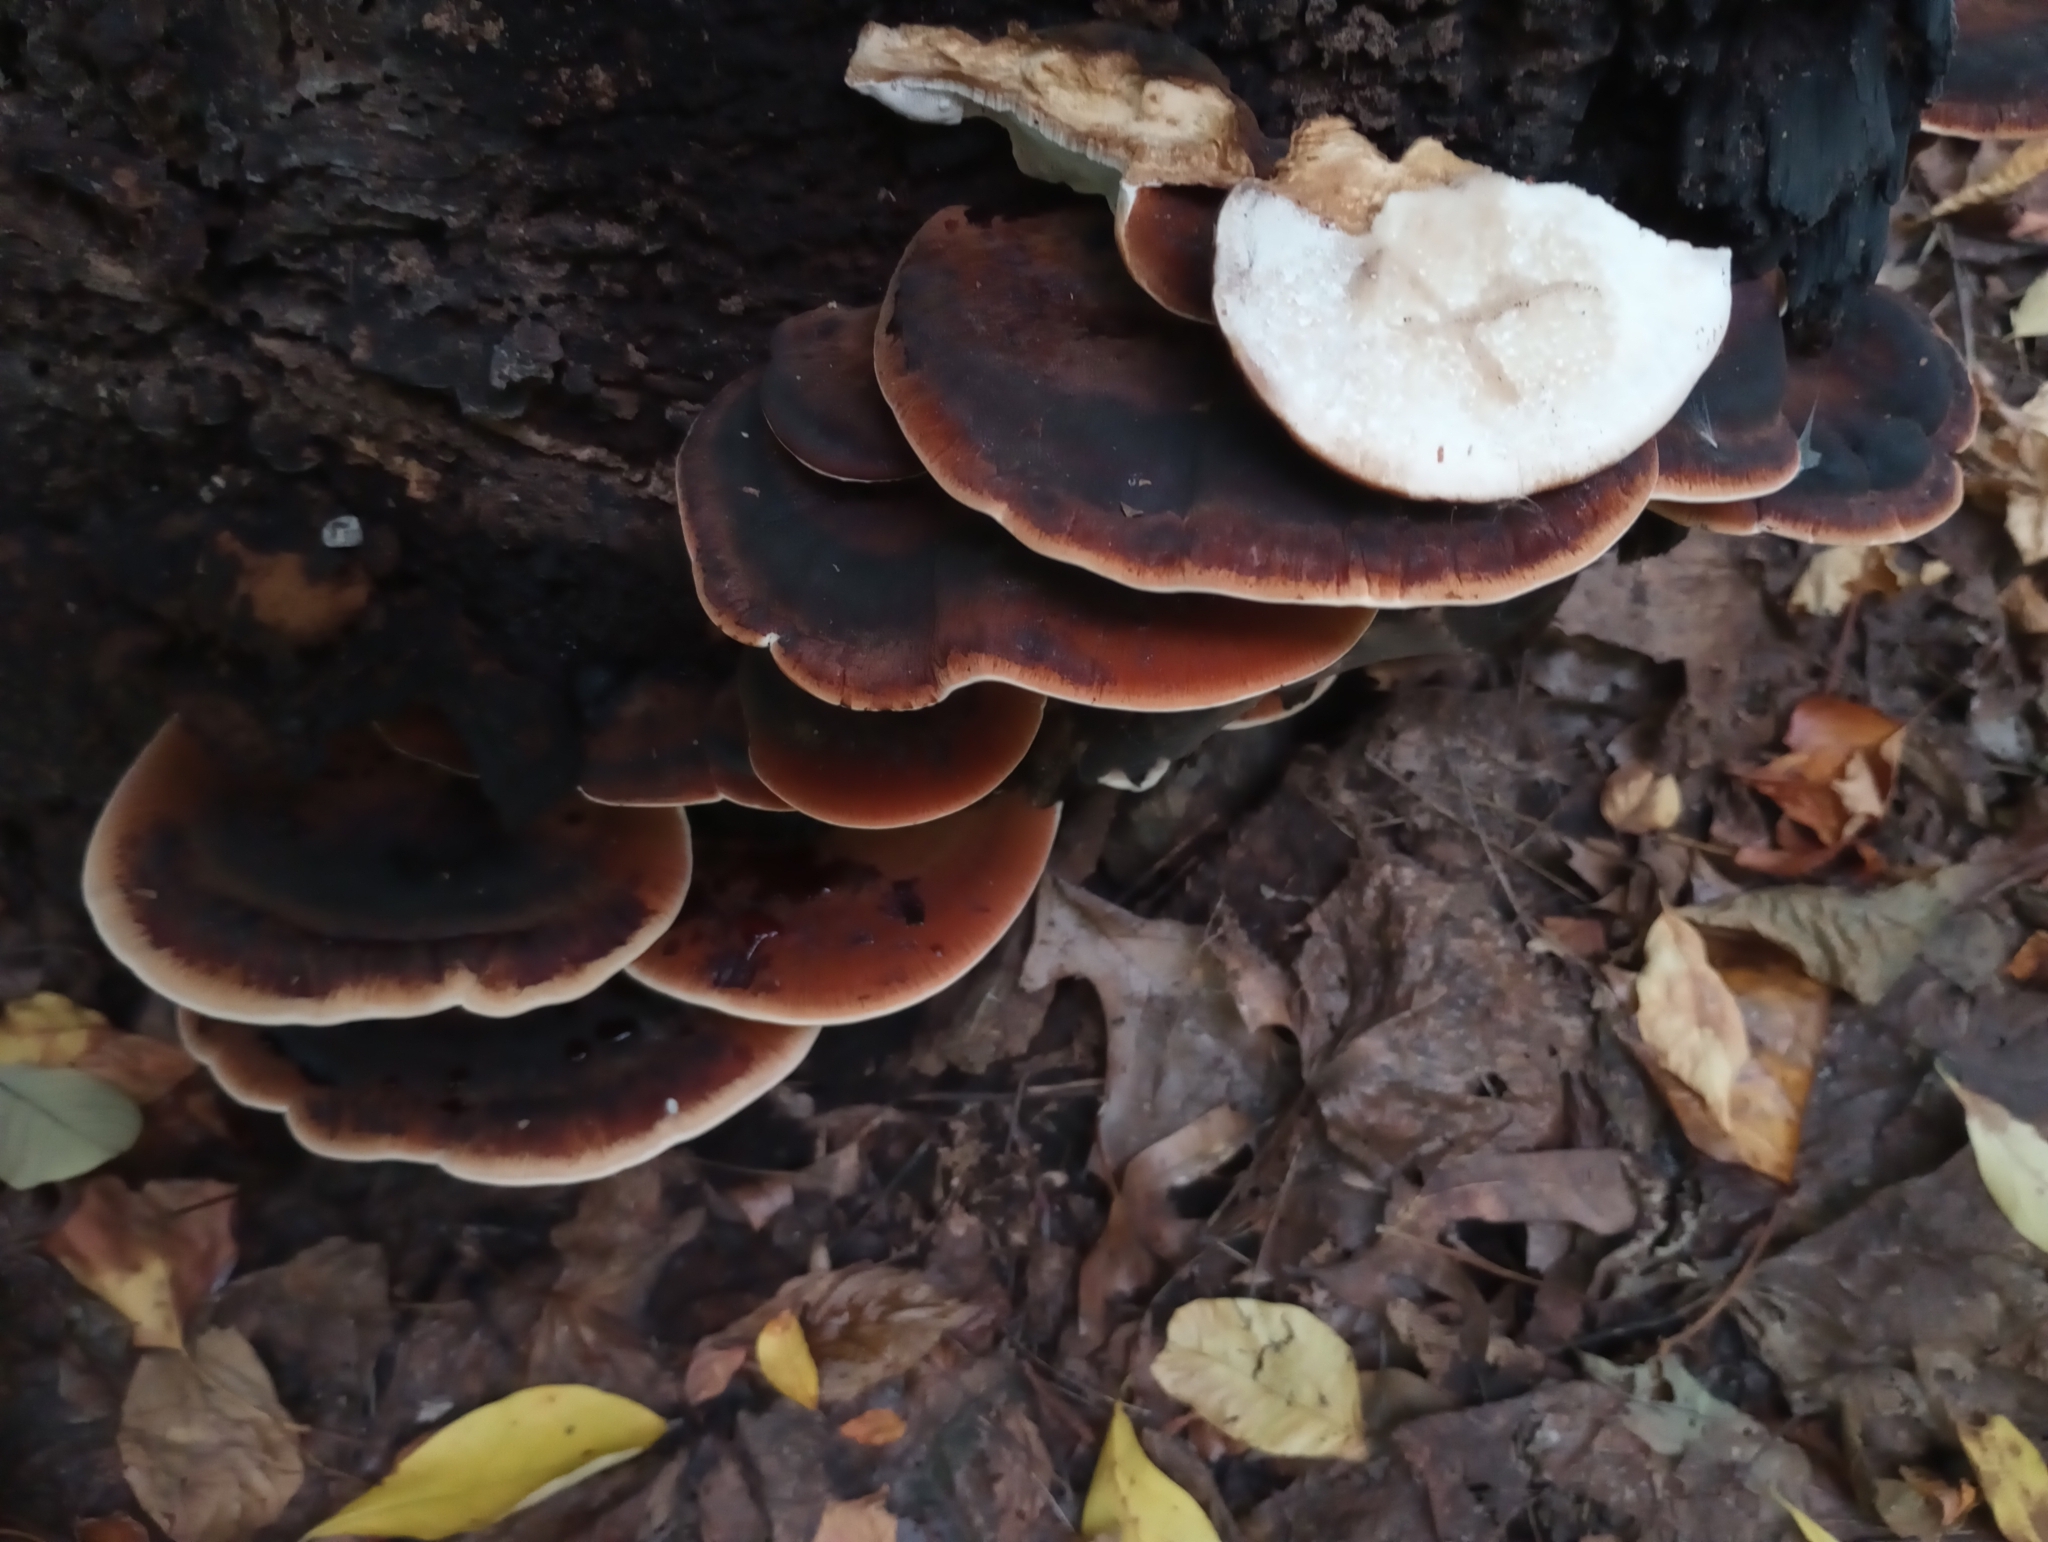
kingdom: Fungi
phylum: Basidiomycota
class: Agaricomycetes
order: Polyporales
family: Ischnodermataceae
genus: Ischnoderma
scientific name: Ischnoderma resinosum
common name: Resinous polypore
